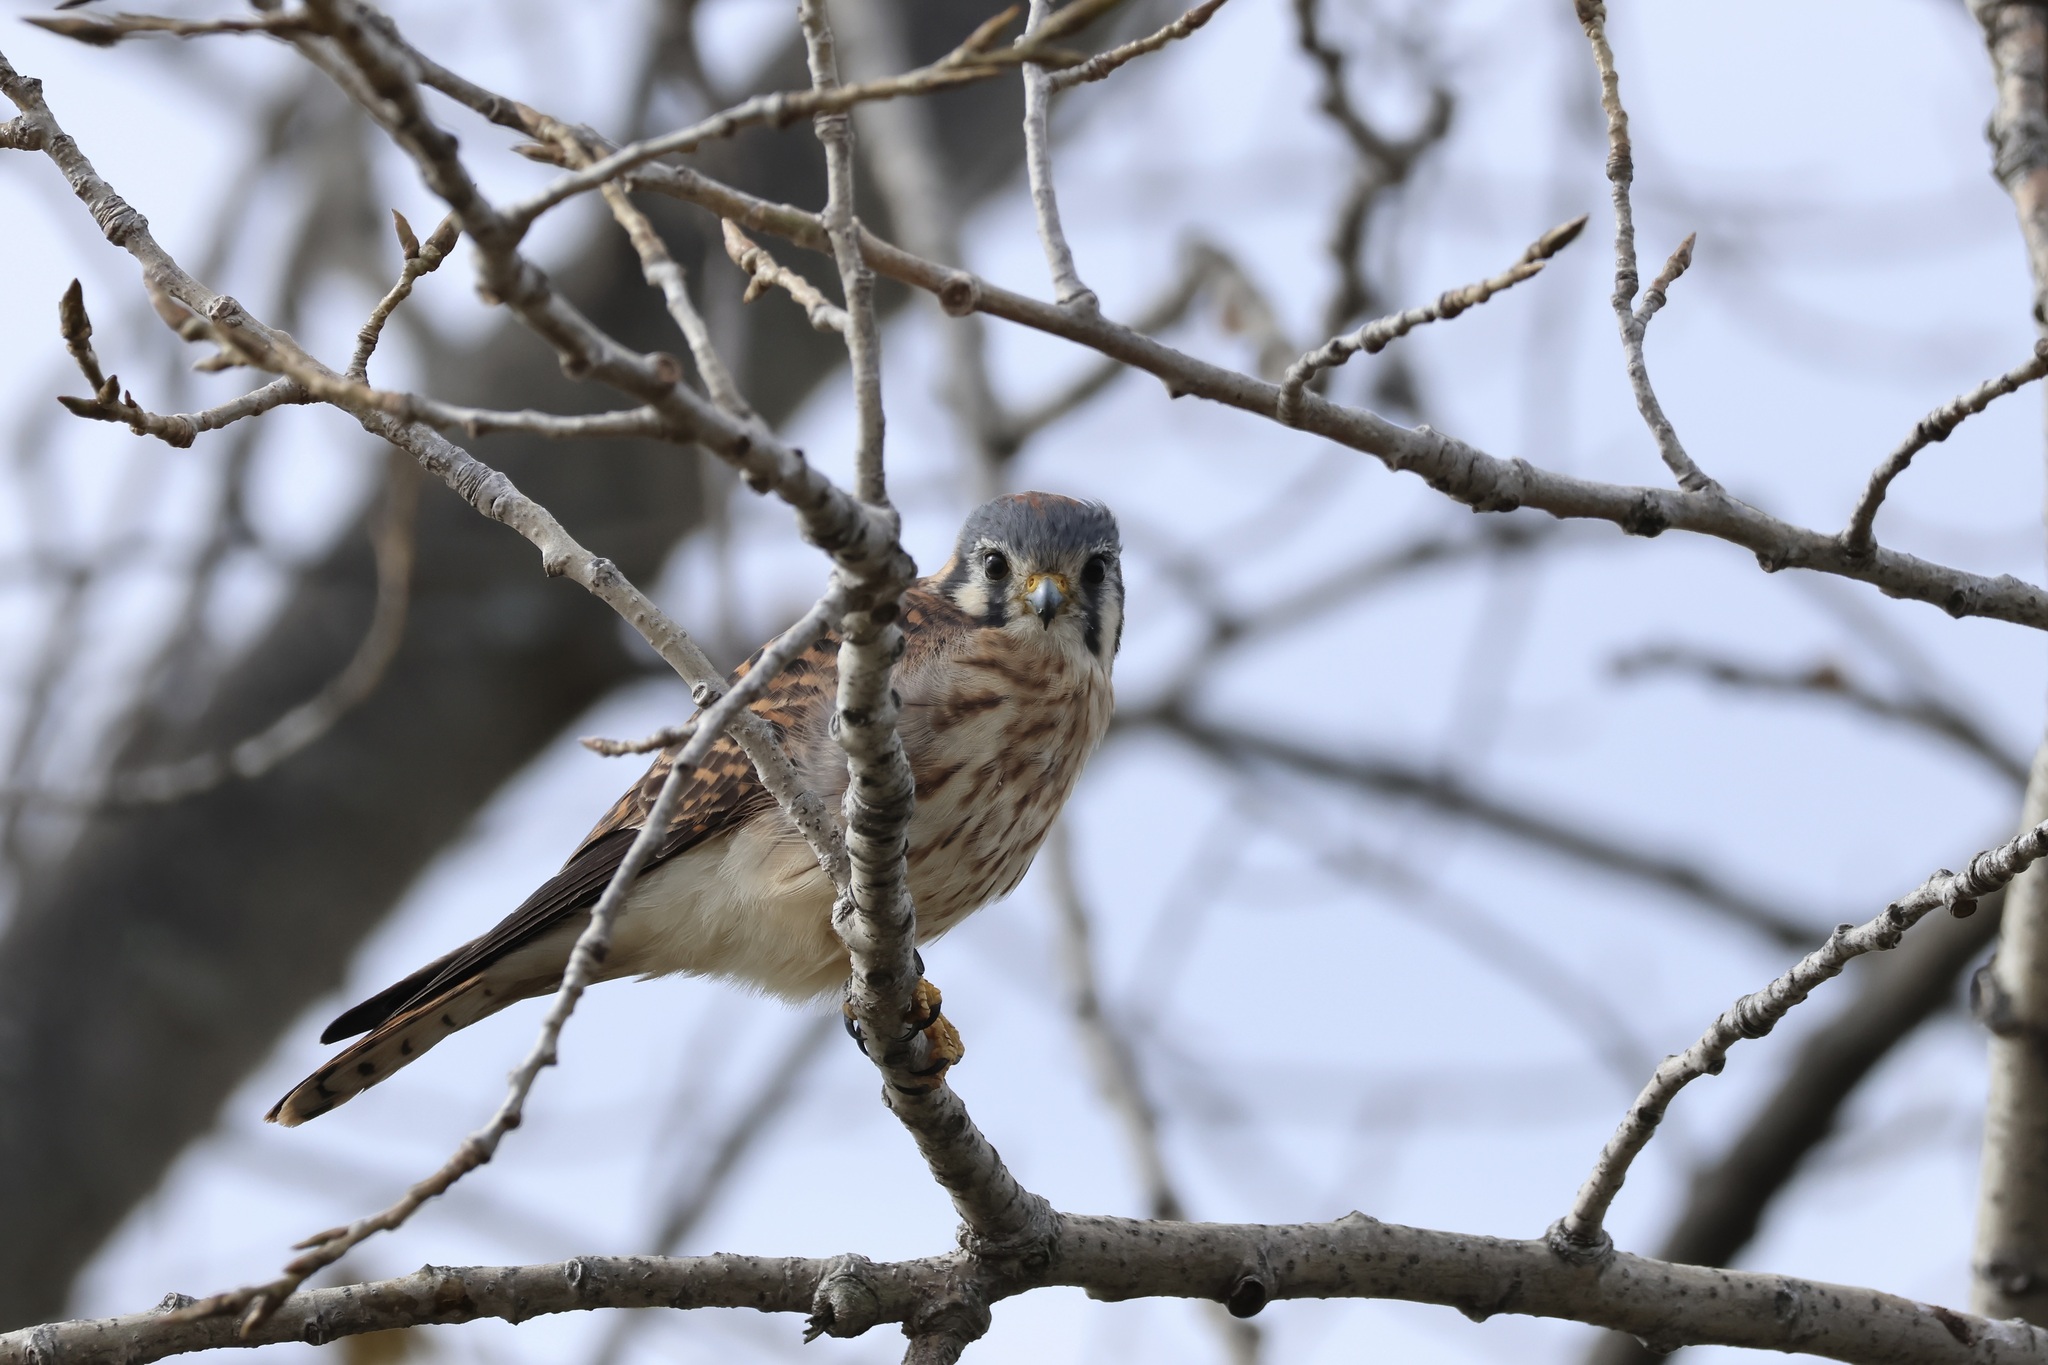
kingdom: Animalia
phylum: Chordata
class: Aves
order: Falconiformes
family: Falconidae
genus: Falco
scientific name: Falco sparverius
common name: American kestrel
